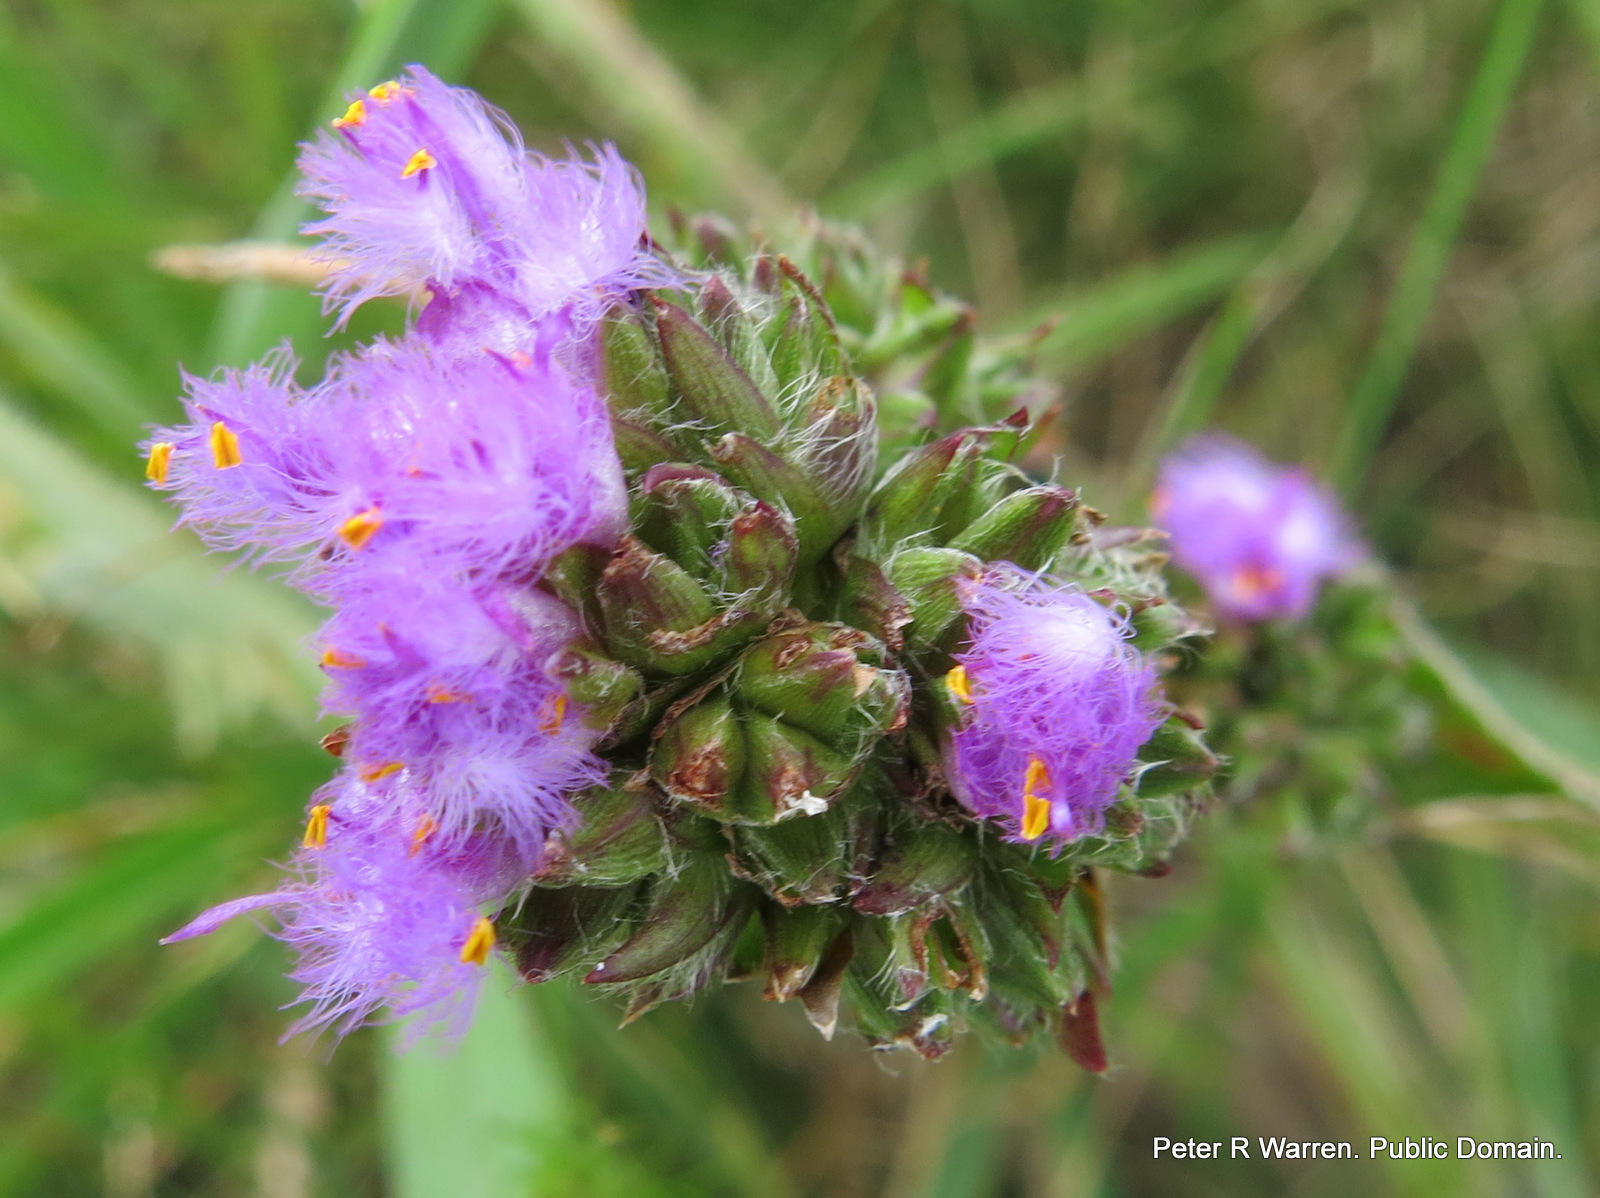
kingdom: Plantae
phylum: Tracheophyta
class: Liliopsida
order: Commelinales
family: Commelinaceae
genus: Cyanotis
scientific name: Cyanotis speciosa
